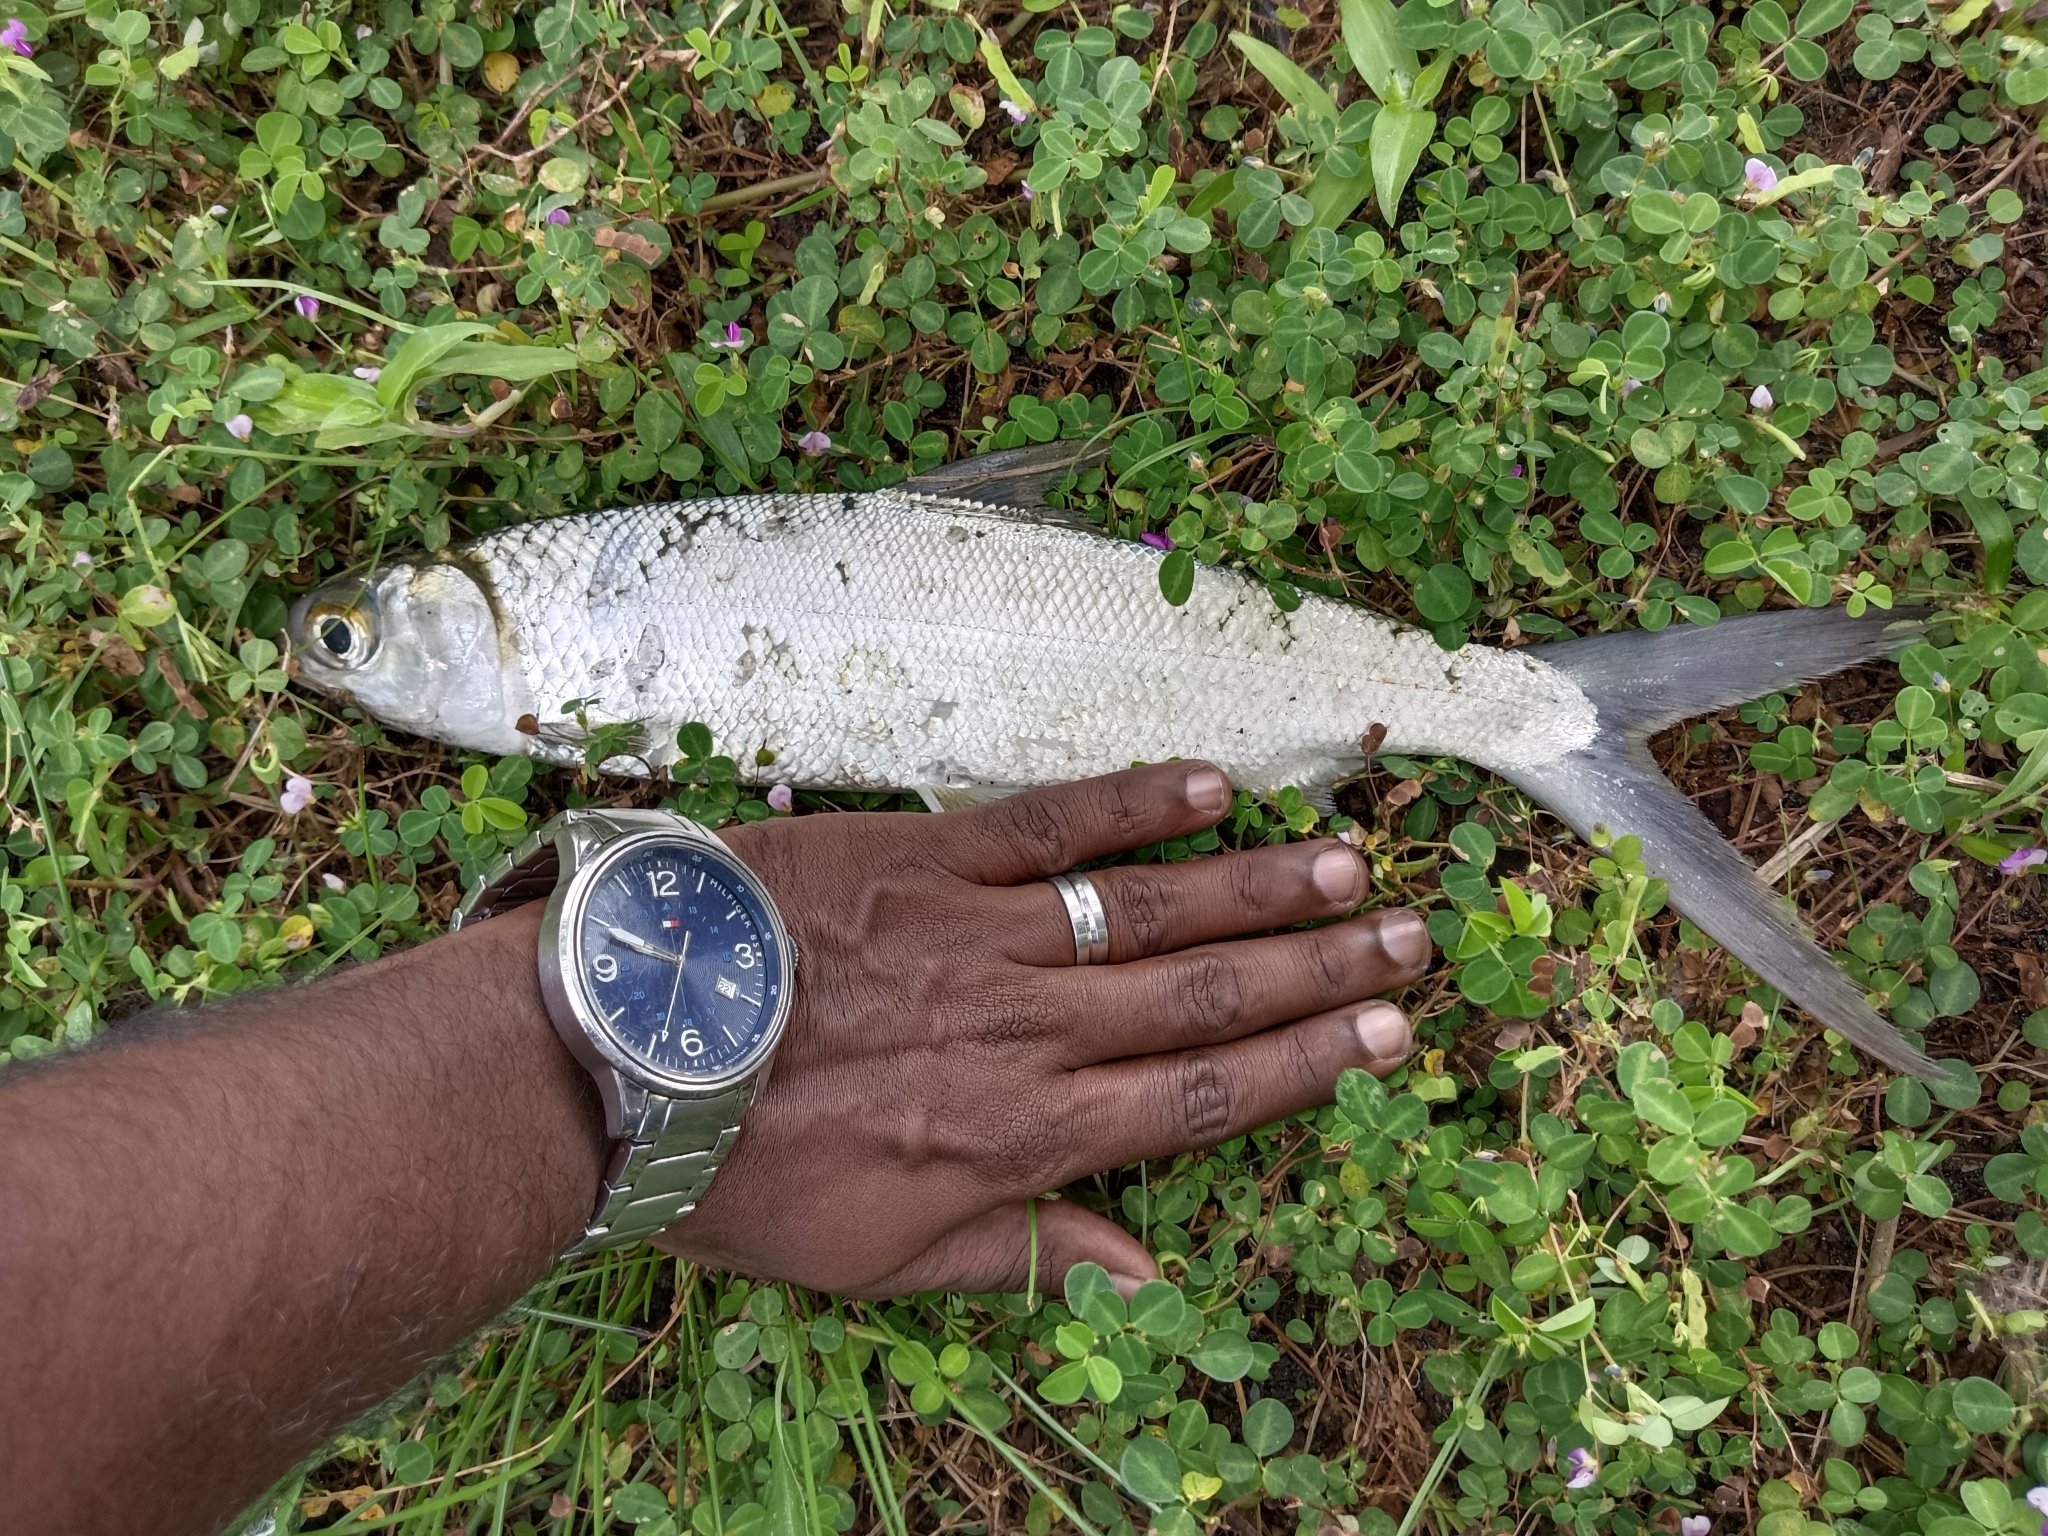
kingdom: Animalia
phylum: Chordata
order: Gonorynchiformes
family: Chanidae
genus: Chanos
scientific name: Chanos chanos
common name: Milkfish
